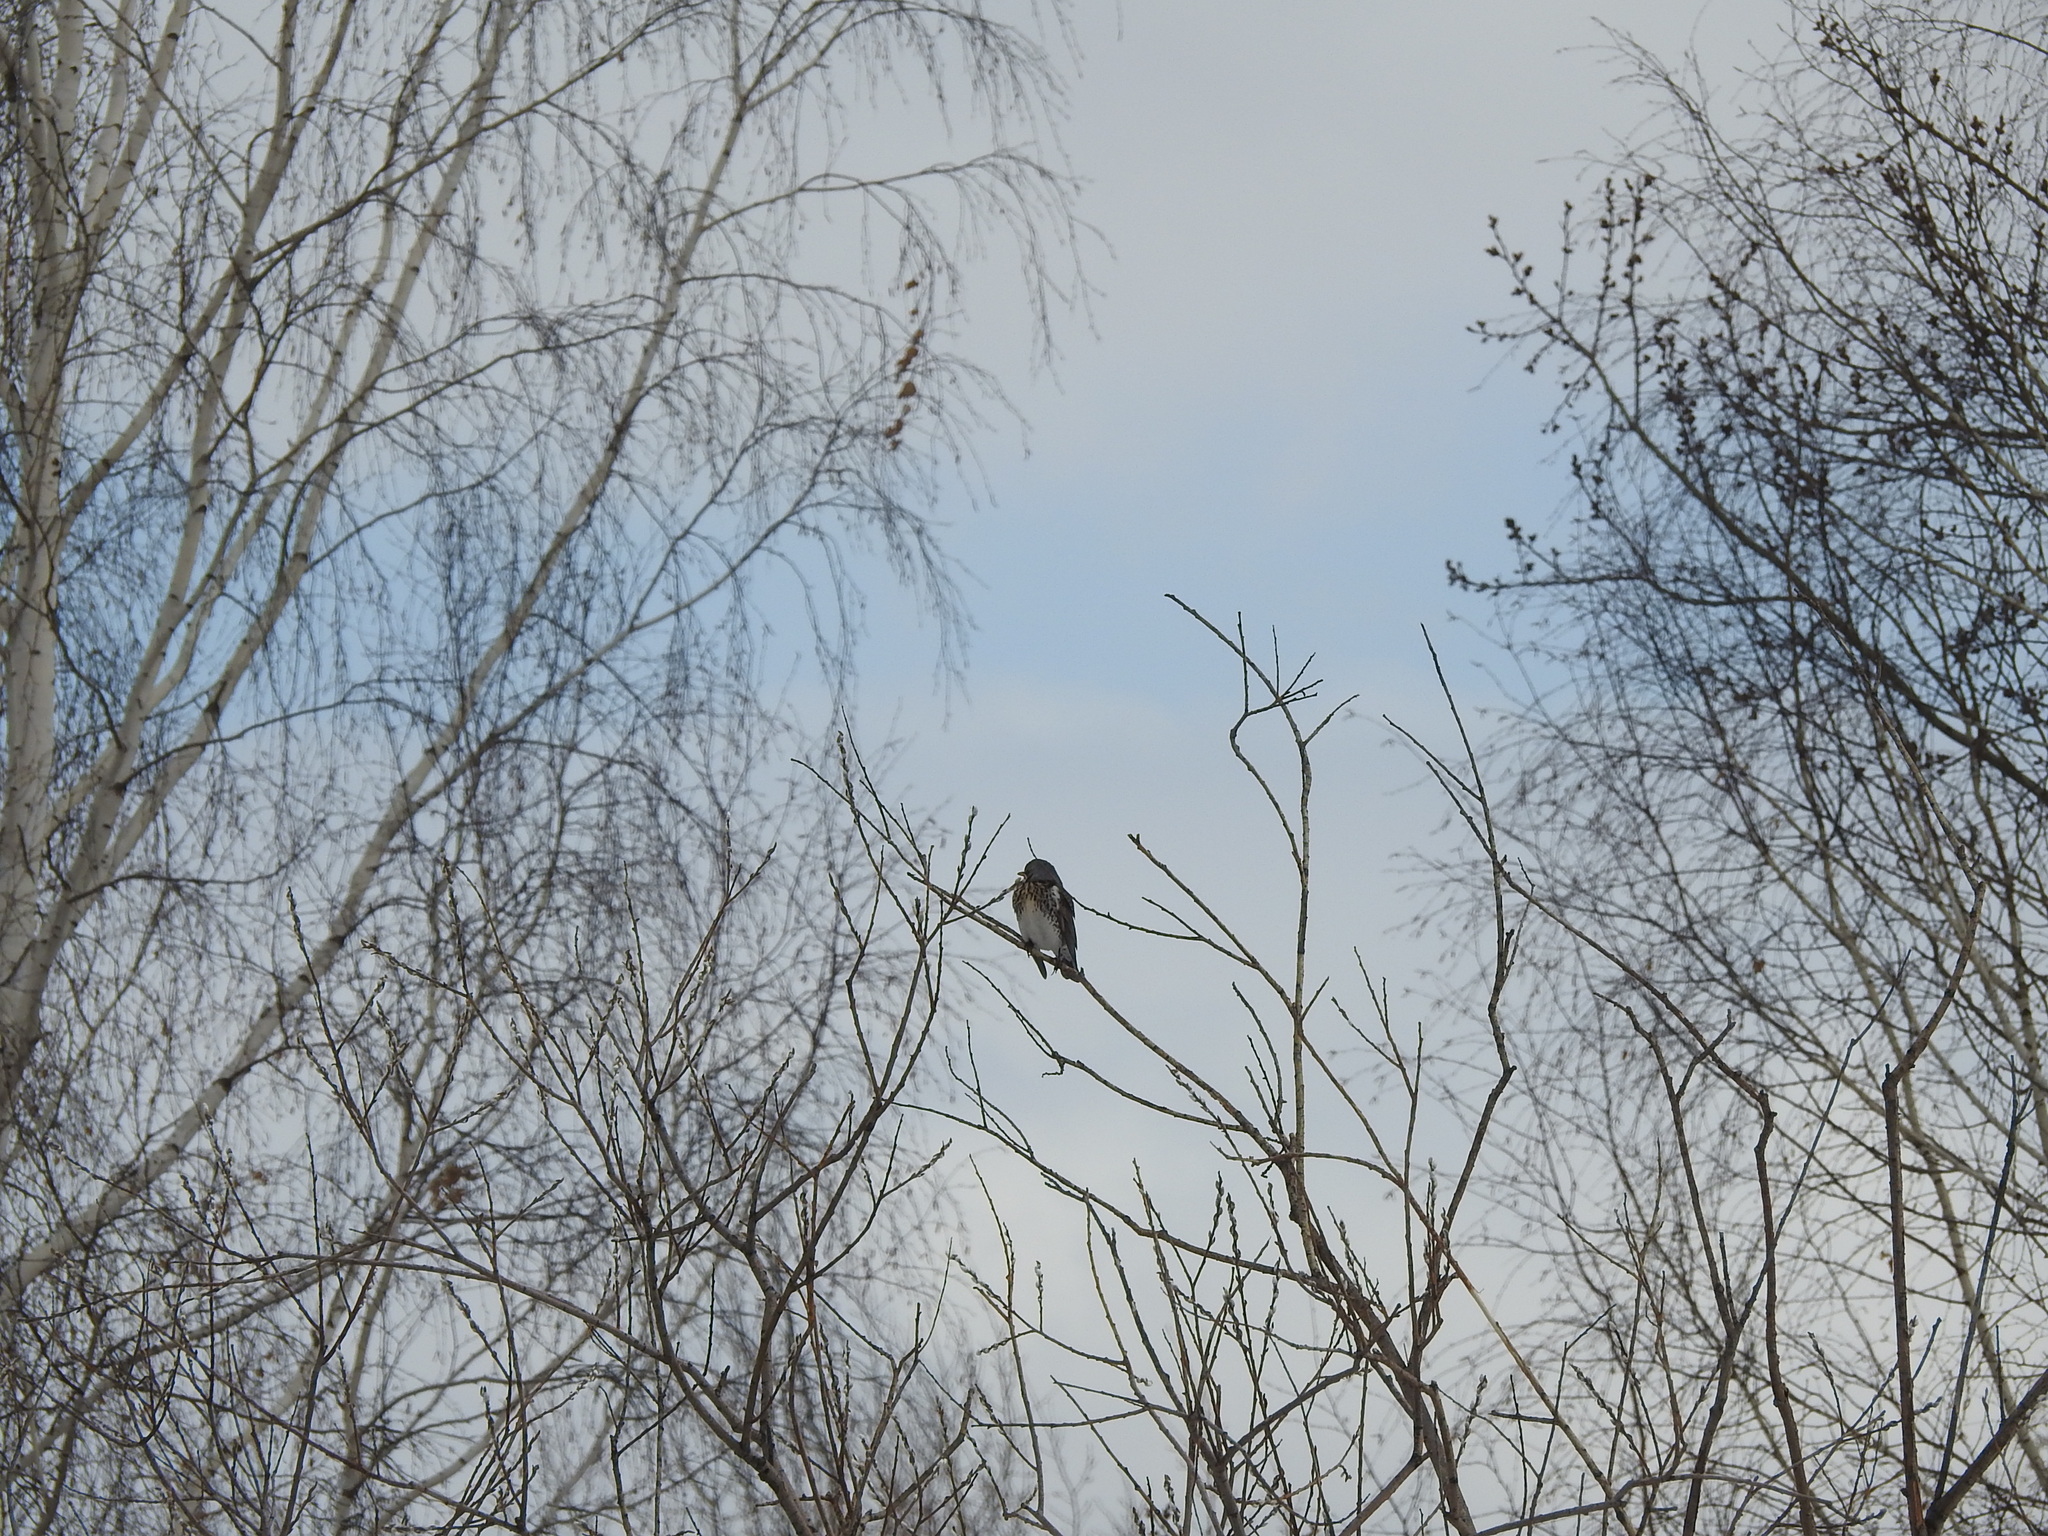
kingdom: Animalia
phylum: Chordata
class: Aves
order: Passeriformes
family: Turdidae
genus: Turdus
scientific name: Turdus pilaris
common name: Fieldfare
